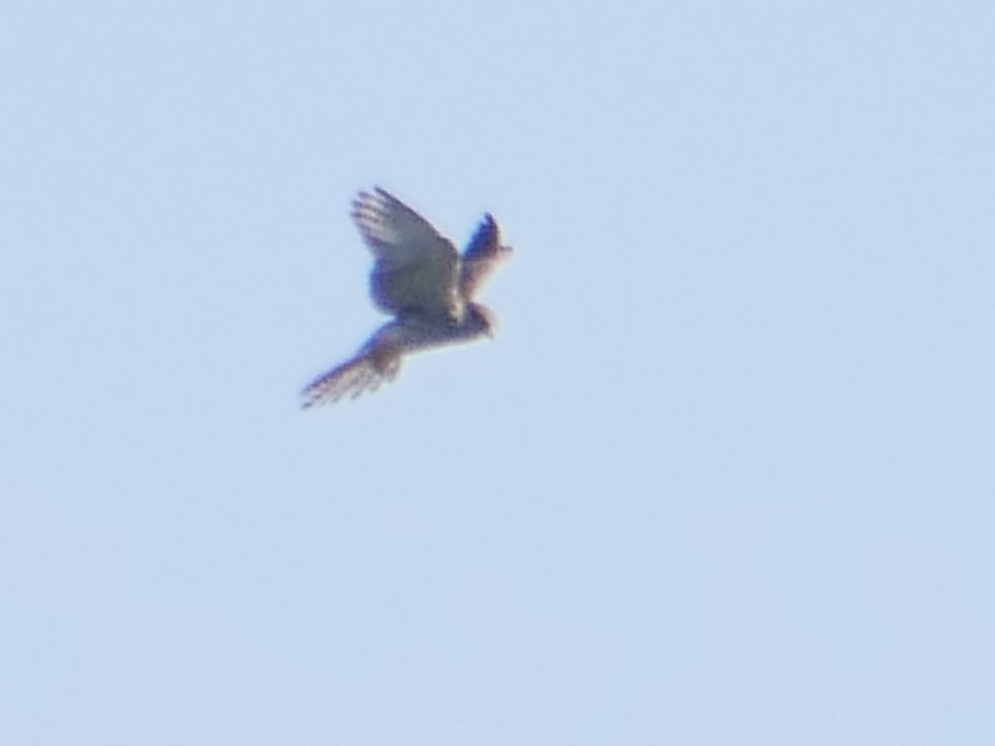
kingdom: Animalia
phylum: Chordata
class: Aves
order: Falconiformes
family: Falconidae
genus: Falco
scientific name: Falco tinnunculus
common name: Common kestrel
